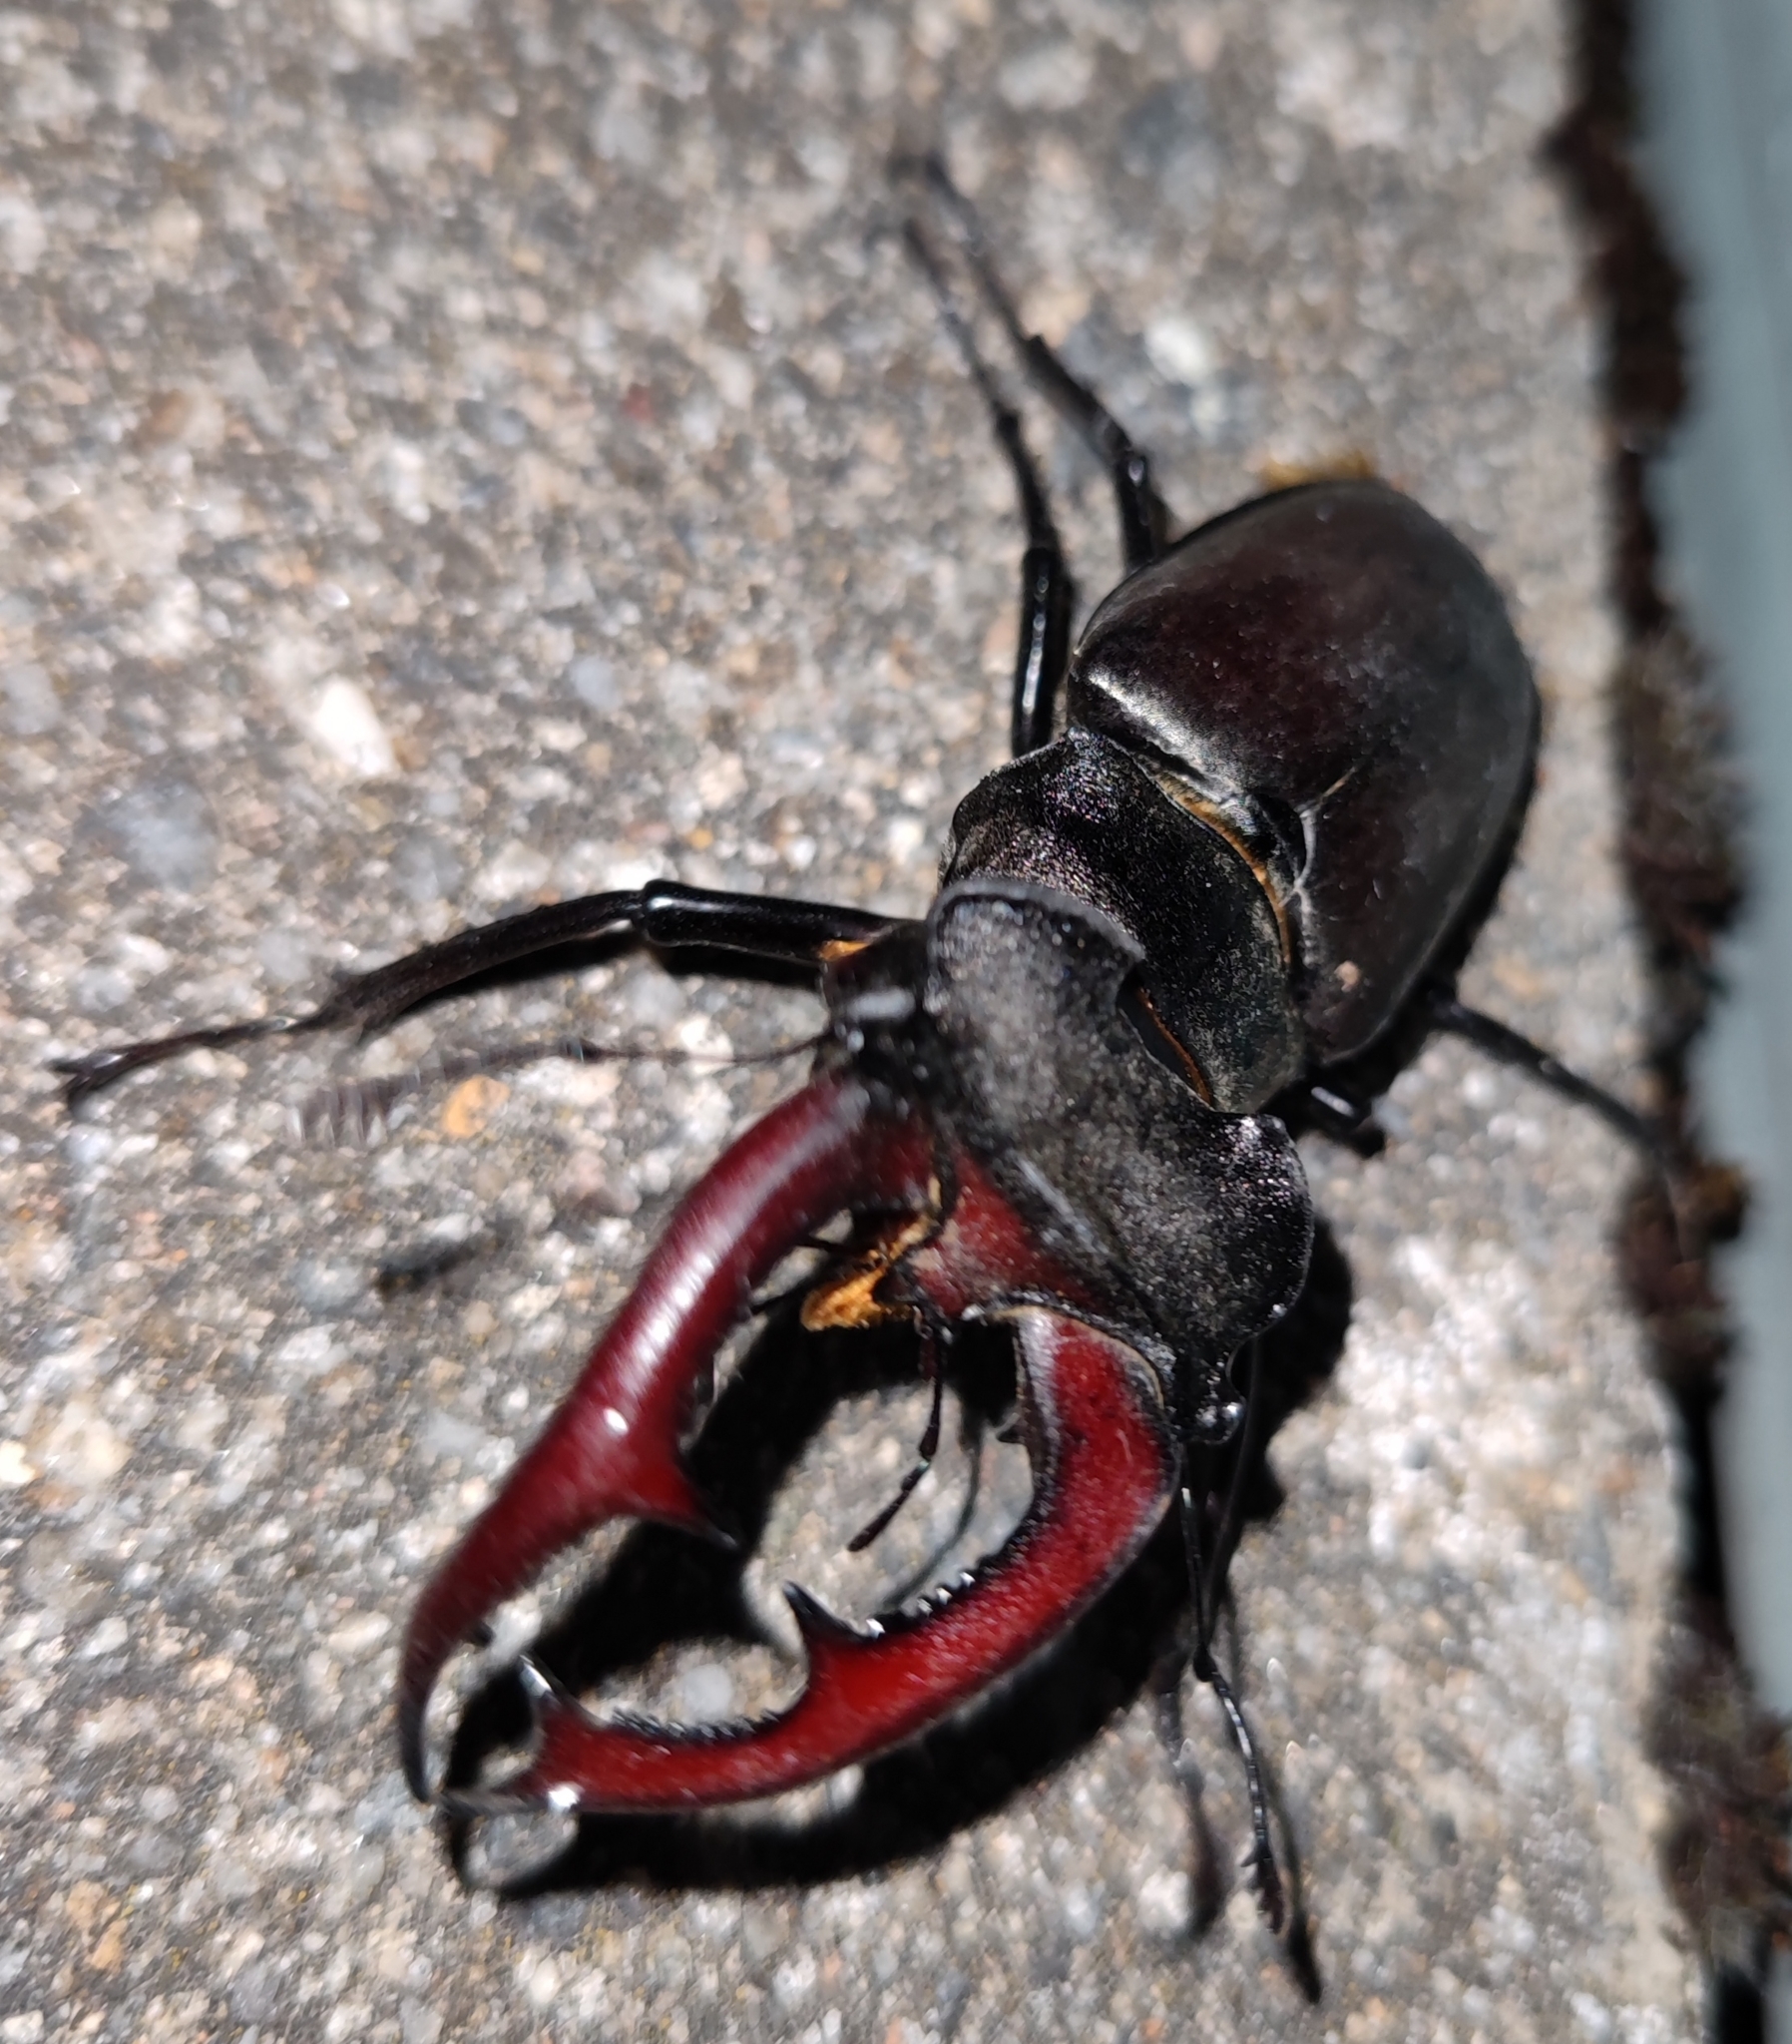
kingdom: Animalia
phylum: Arthropoda
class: Insecta
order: Coleoptera
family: Lucanidae
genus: Lucanus
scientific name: Lucanus cervus
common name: Stag beetle
